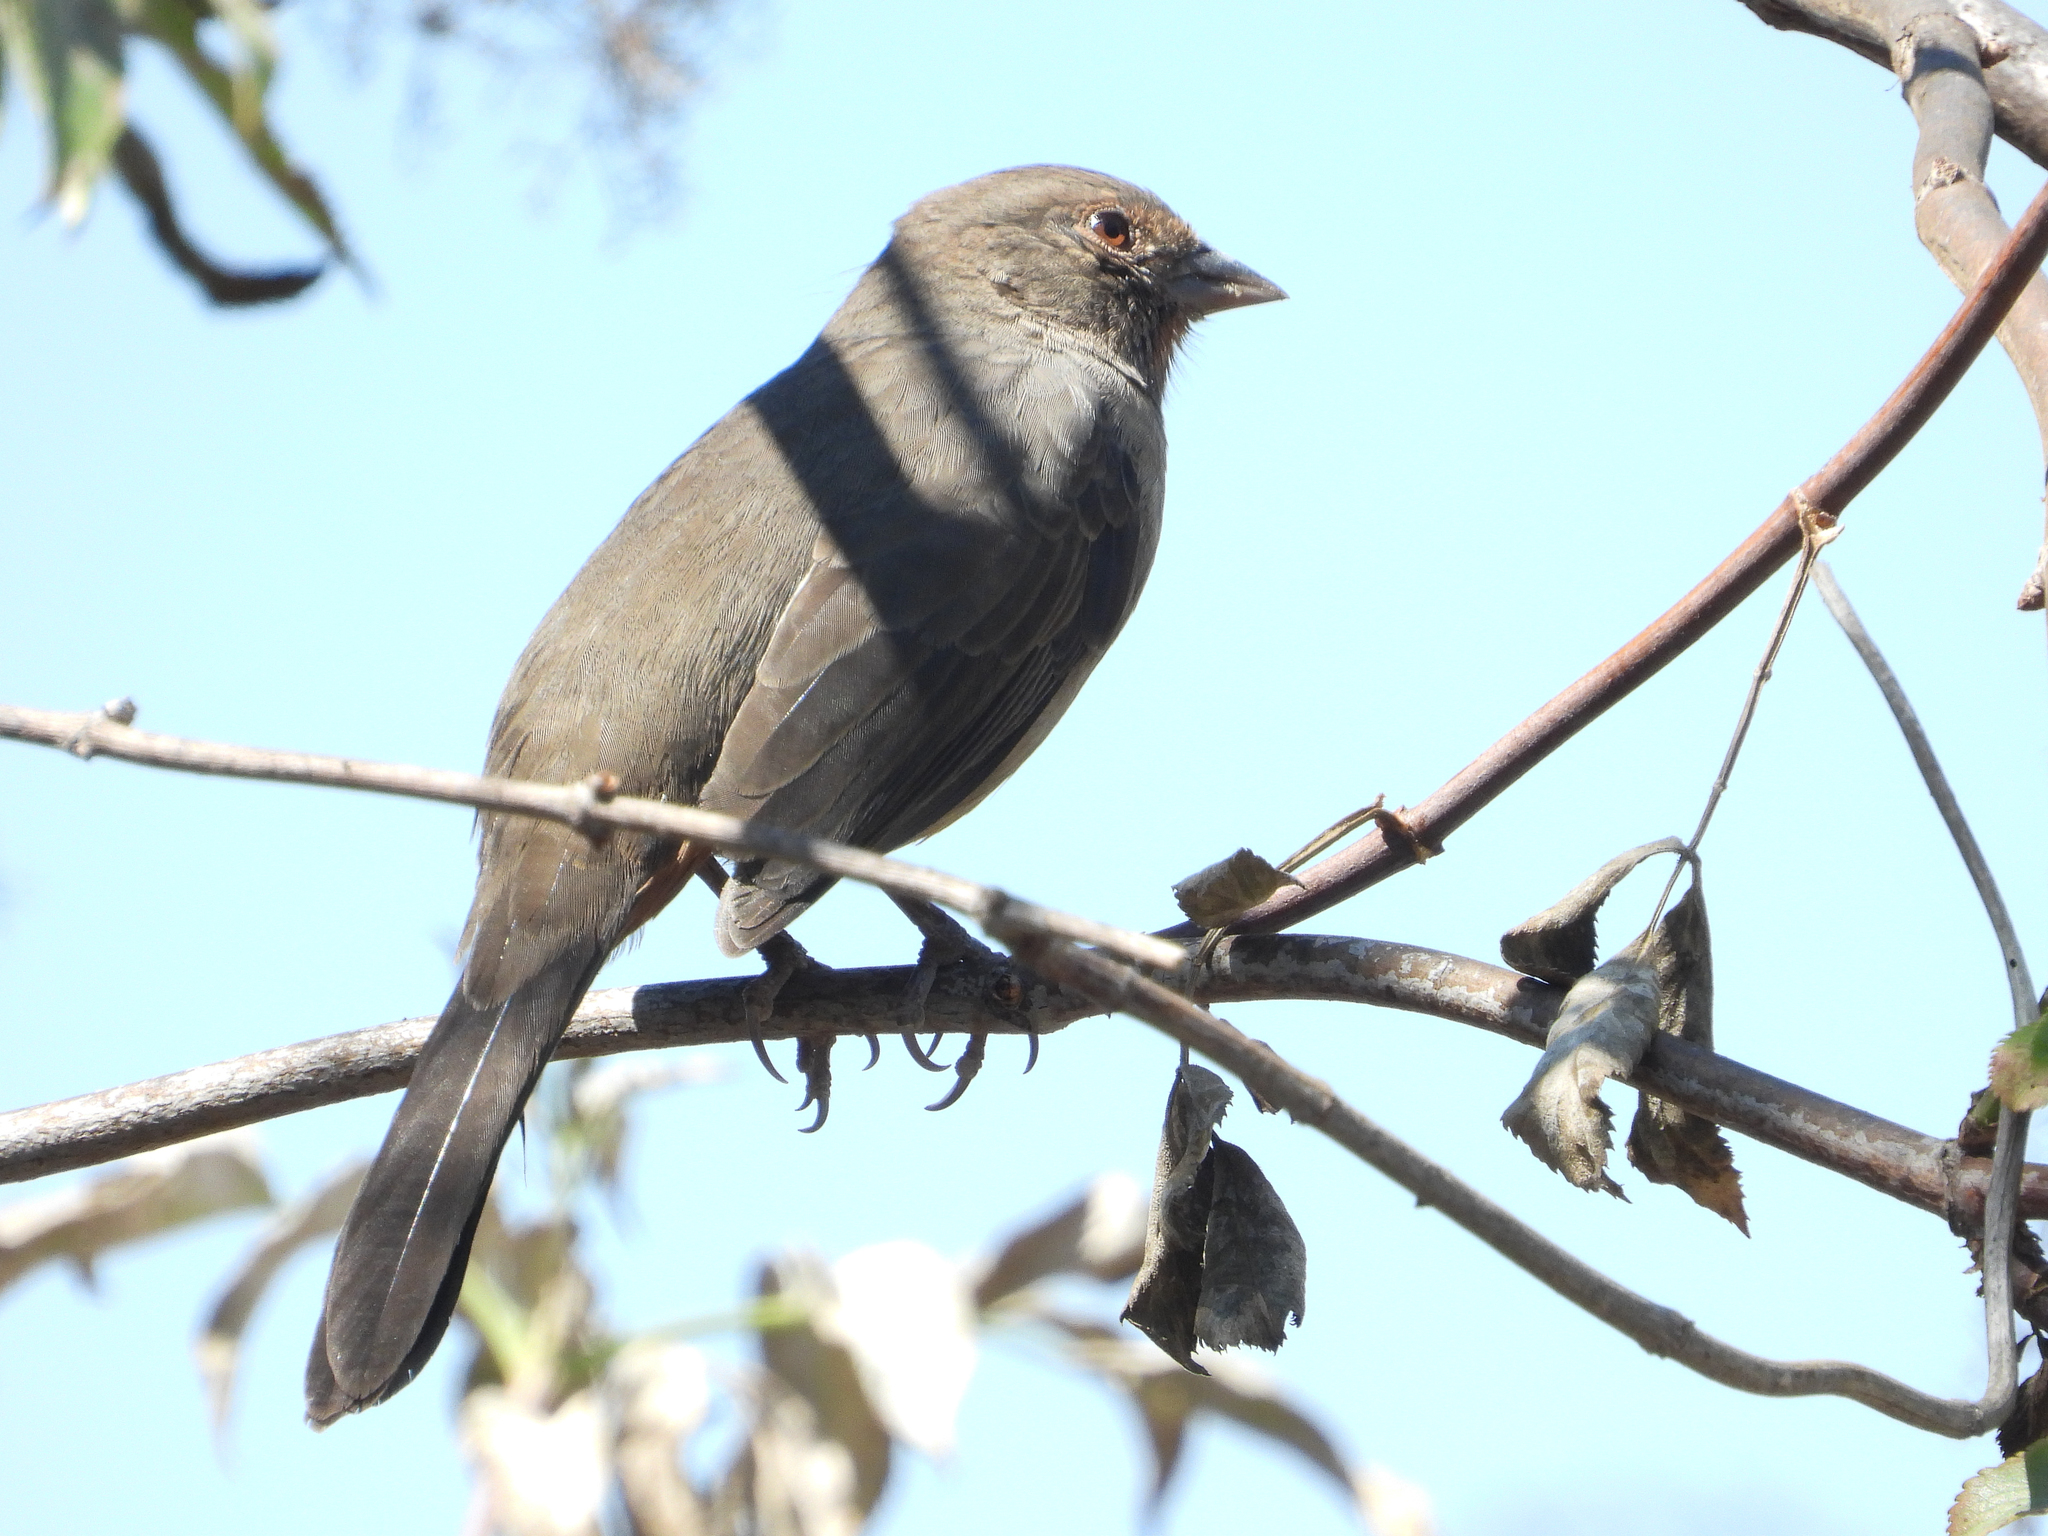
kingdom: Animalia
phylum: Chordata
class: Aves
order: Passeriformes
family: Passerellidae
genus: Melozone
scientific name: Melozone crissalis
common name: California towhee
